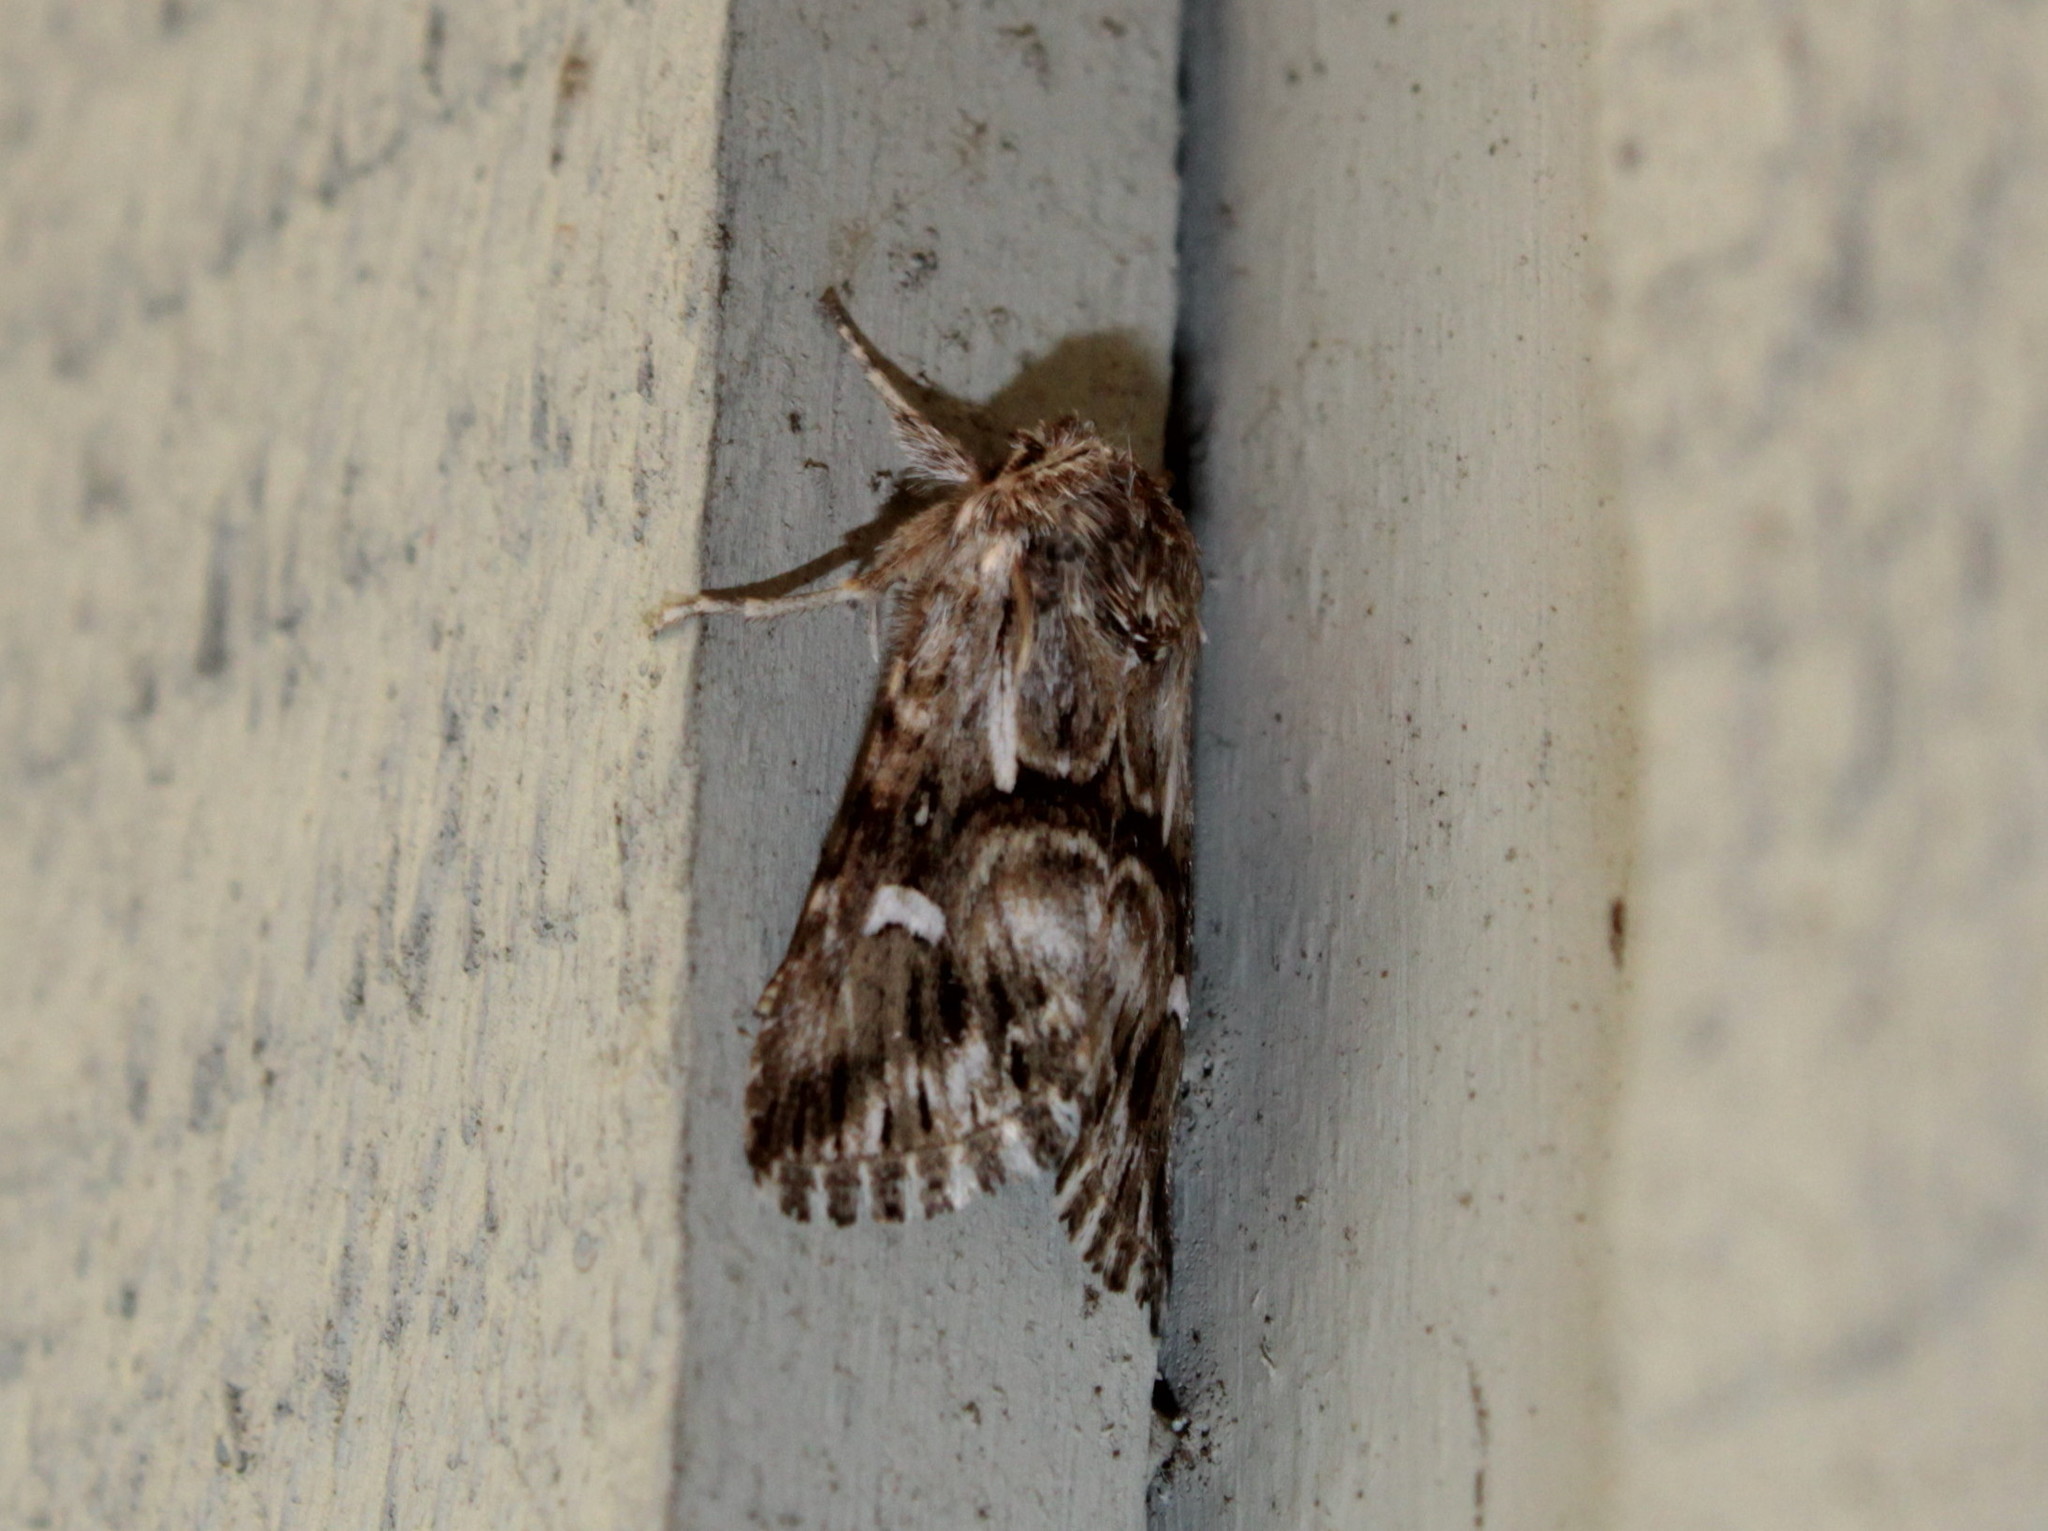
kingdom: Animalia
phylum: Arthropoda
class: Insecta
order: Lepidoptera
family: Noctuidae
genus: Calophasia
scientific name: Calophasia lunula
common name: Toadflax brocade
